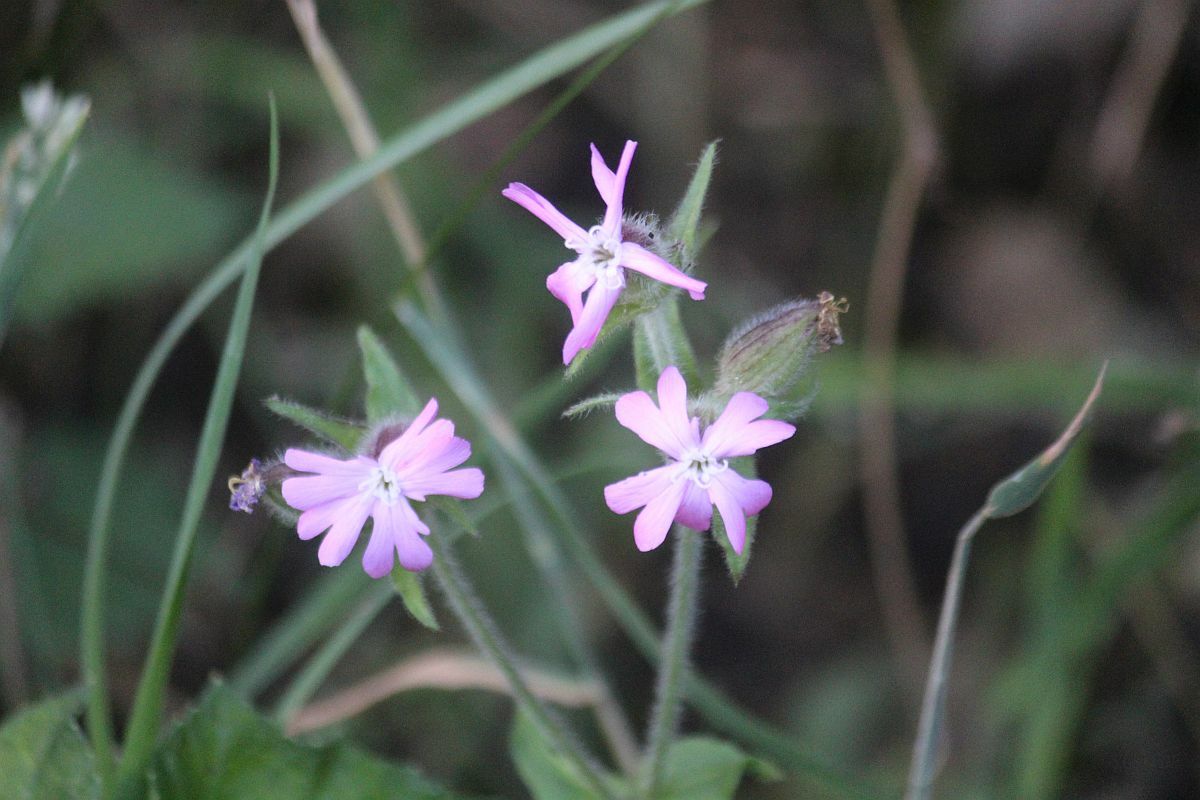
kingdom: Plantae
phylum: Tracheophyta
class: Magnoliopsida
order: Caryophyllales
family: Caryophyllaceae
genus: Silene
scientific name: Silene dioica
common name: Red campion
